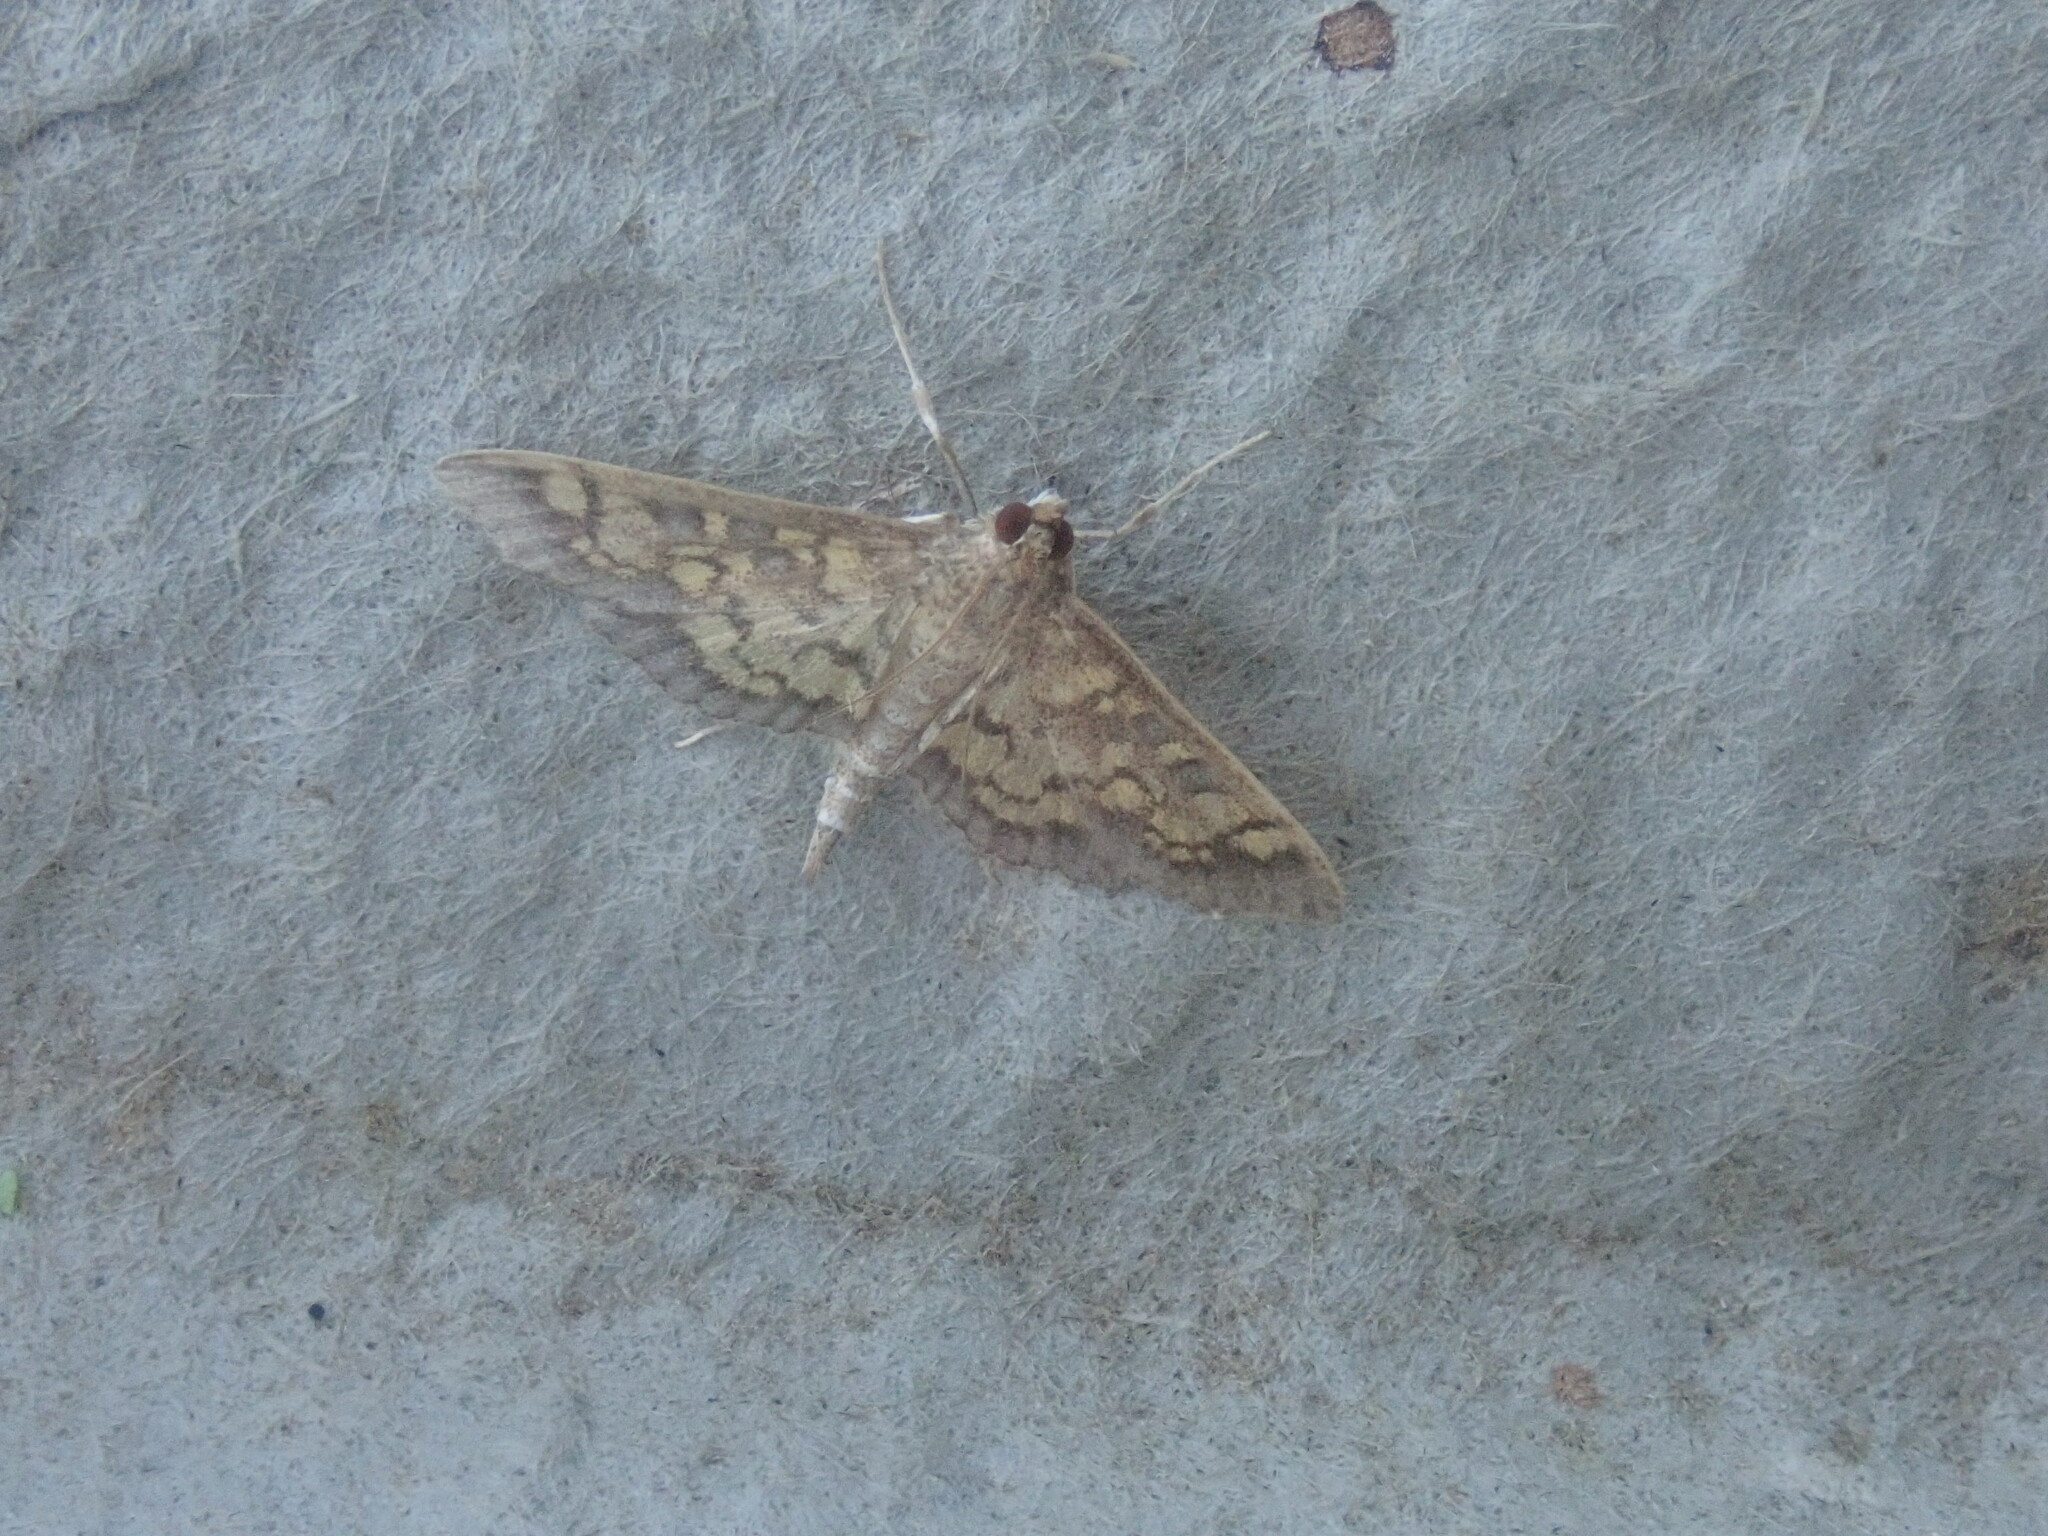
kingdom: Animalia
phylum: Arthropoda
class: Insecta
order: Lepidoptera
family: Crambidae
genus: Epipagis
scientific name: Epipagis adipaloides
